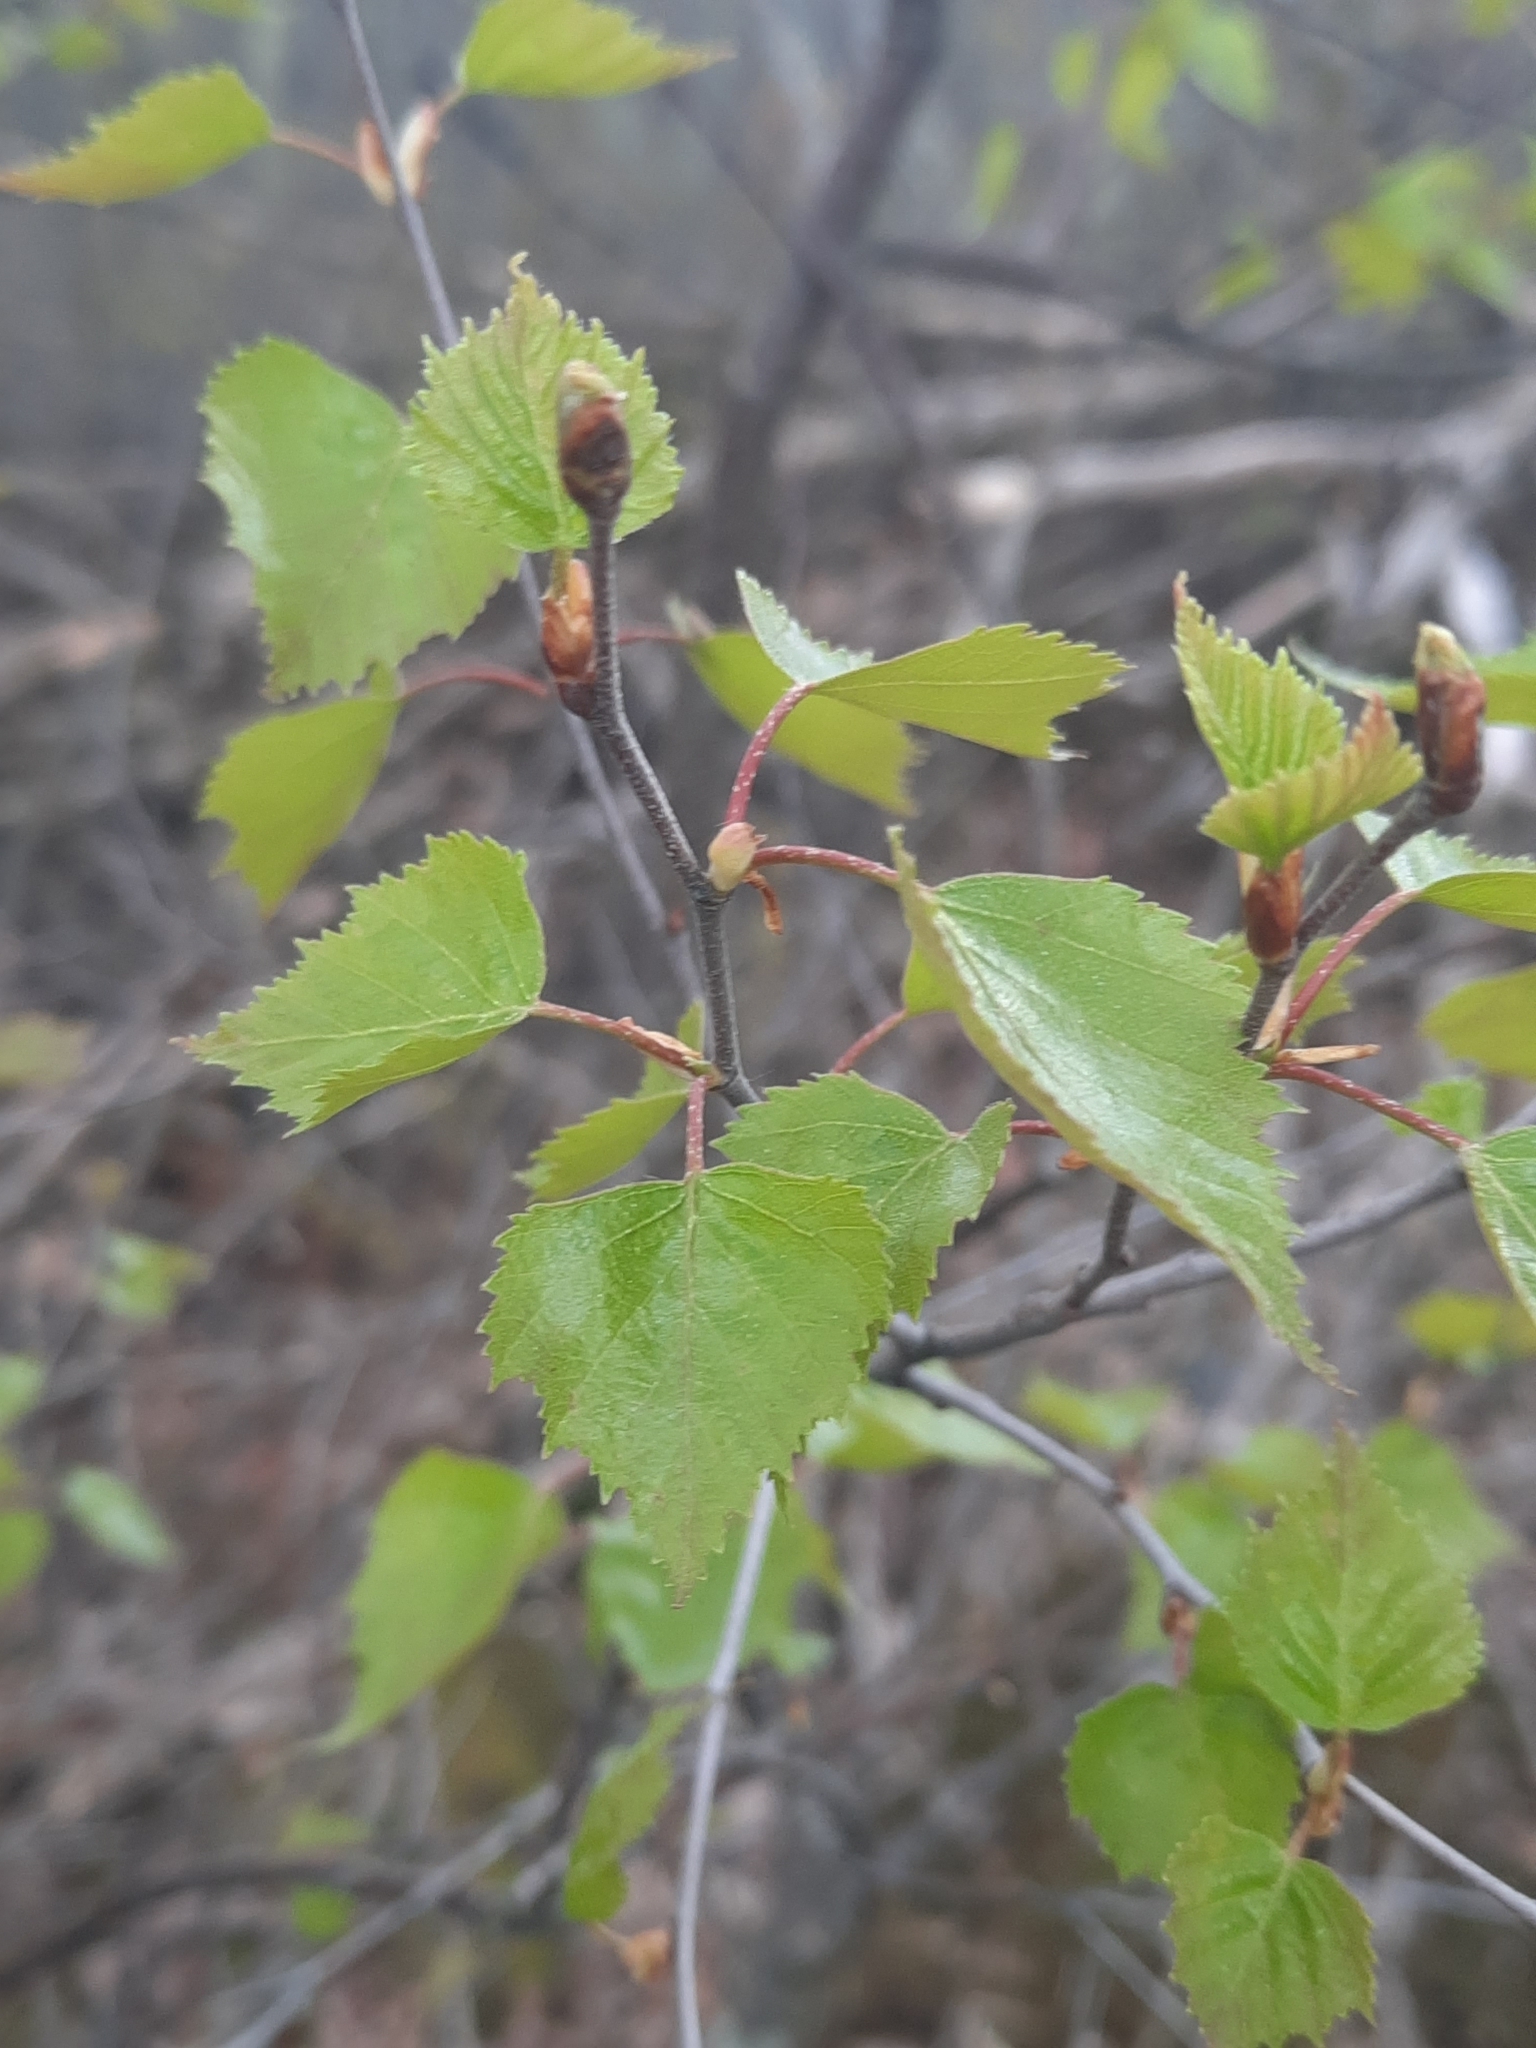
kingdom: Plantae
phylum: Tracheophyta
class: Magnoliopsida
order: Fagales
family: Betulaceae
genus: Betula
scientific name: Betula populifolia
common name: Fire birch
